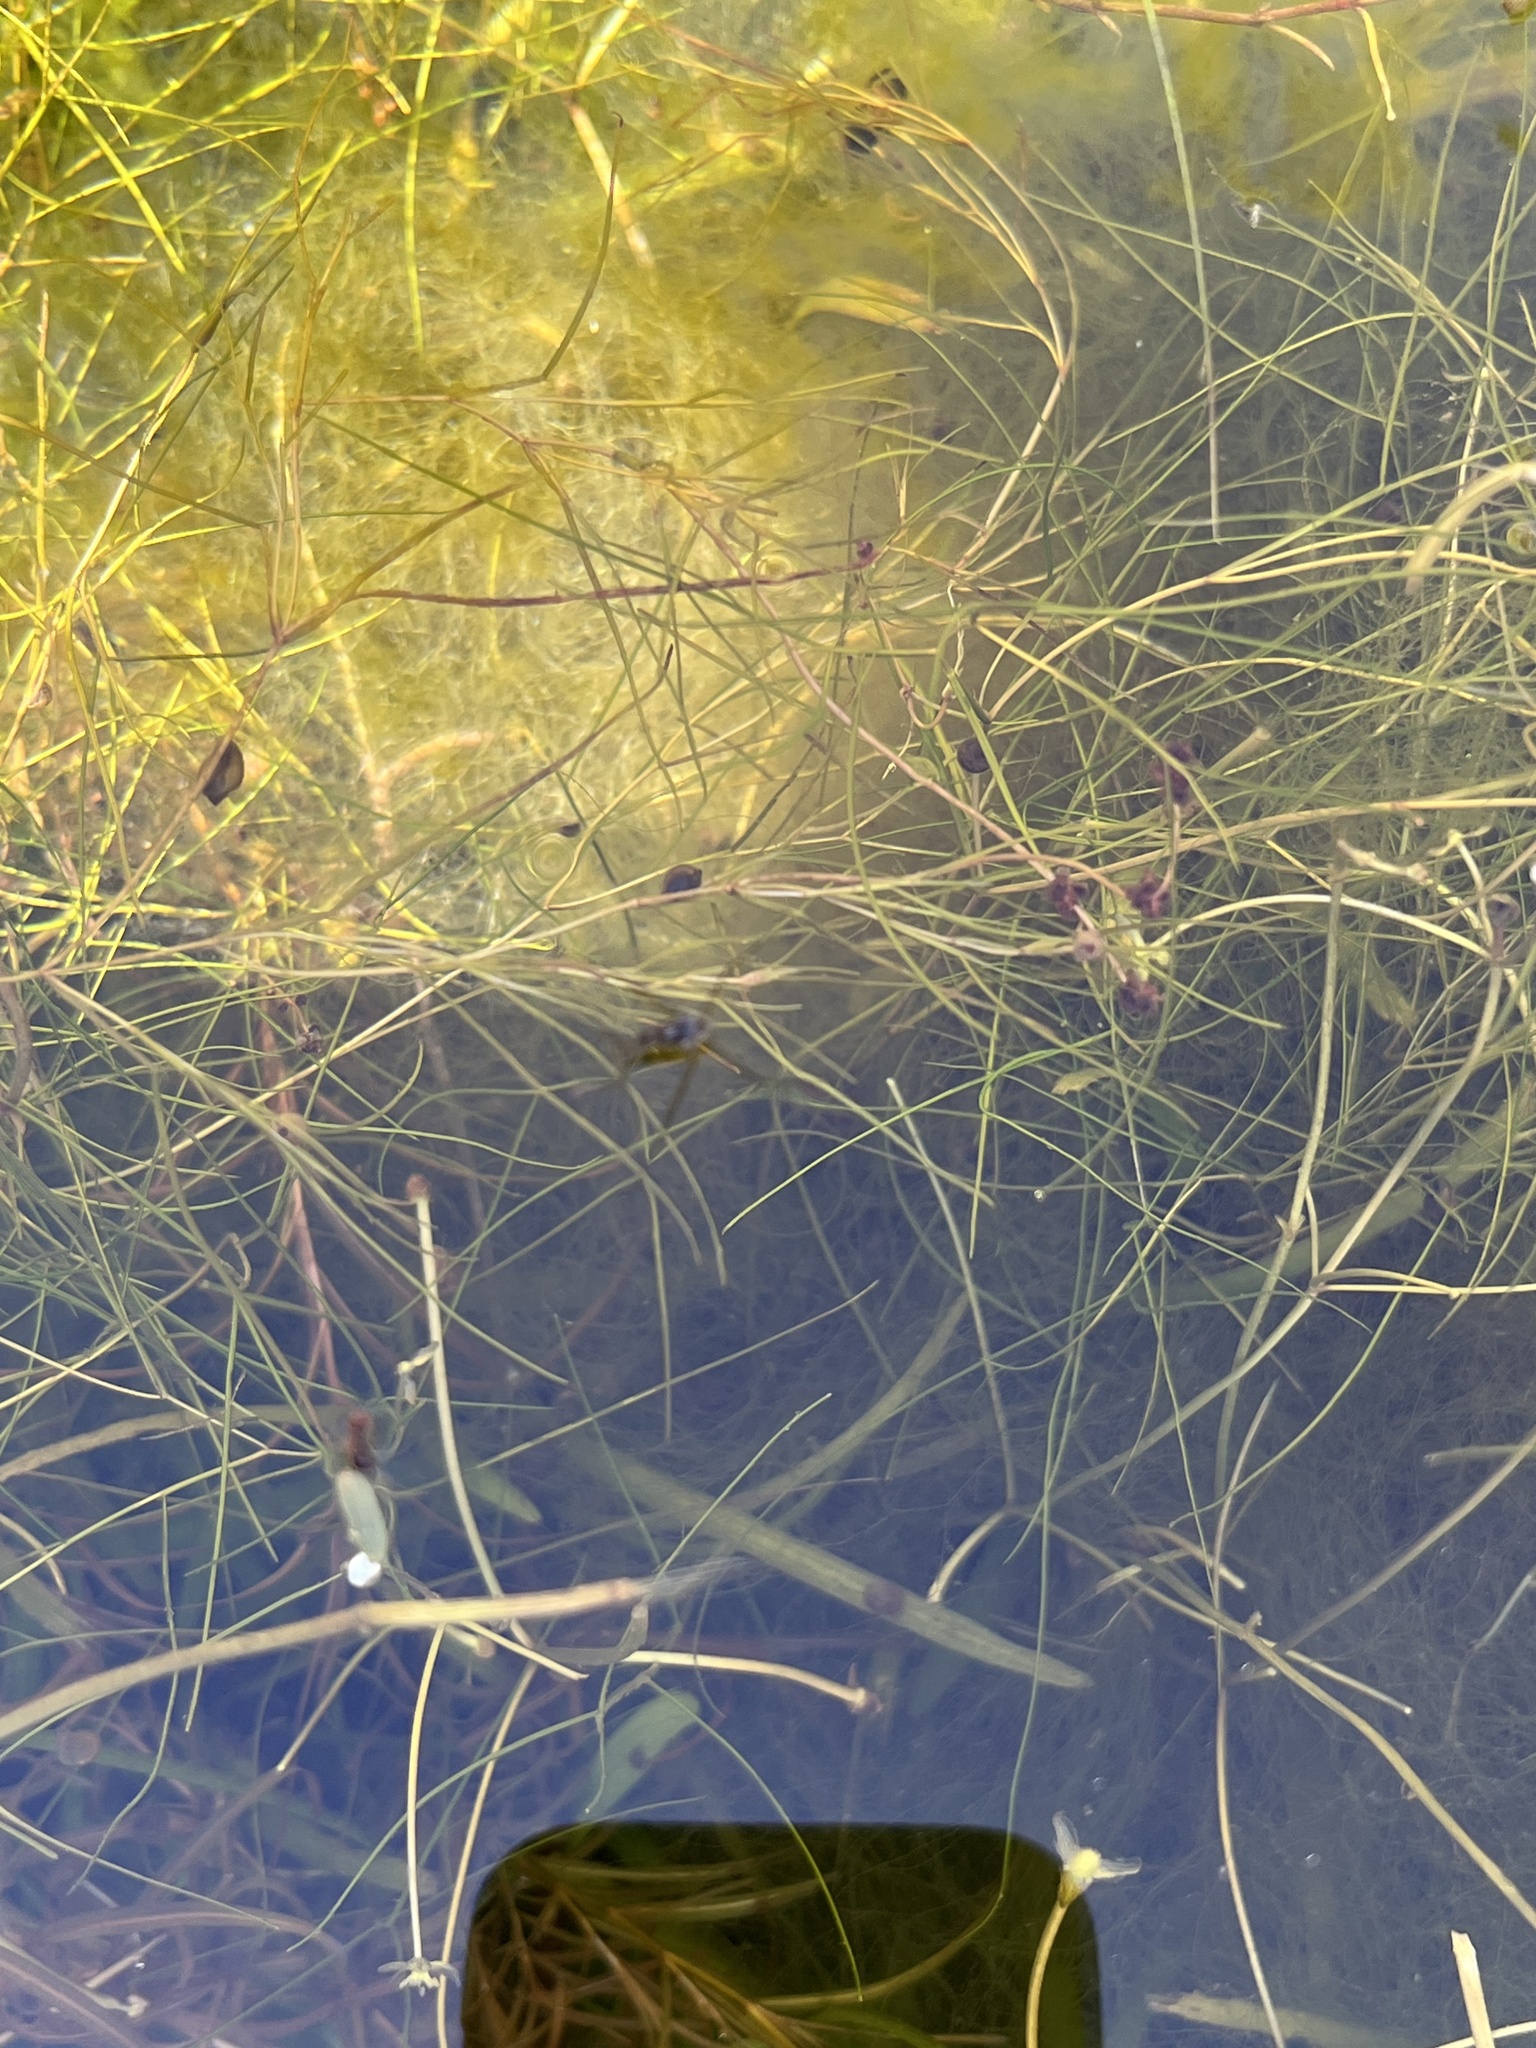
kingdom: Animalia
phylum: Arthropoda
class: Insecta
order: Hemiptera
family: Gerridae
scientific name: Gerridae
